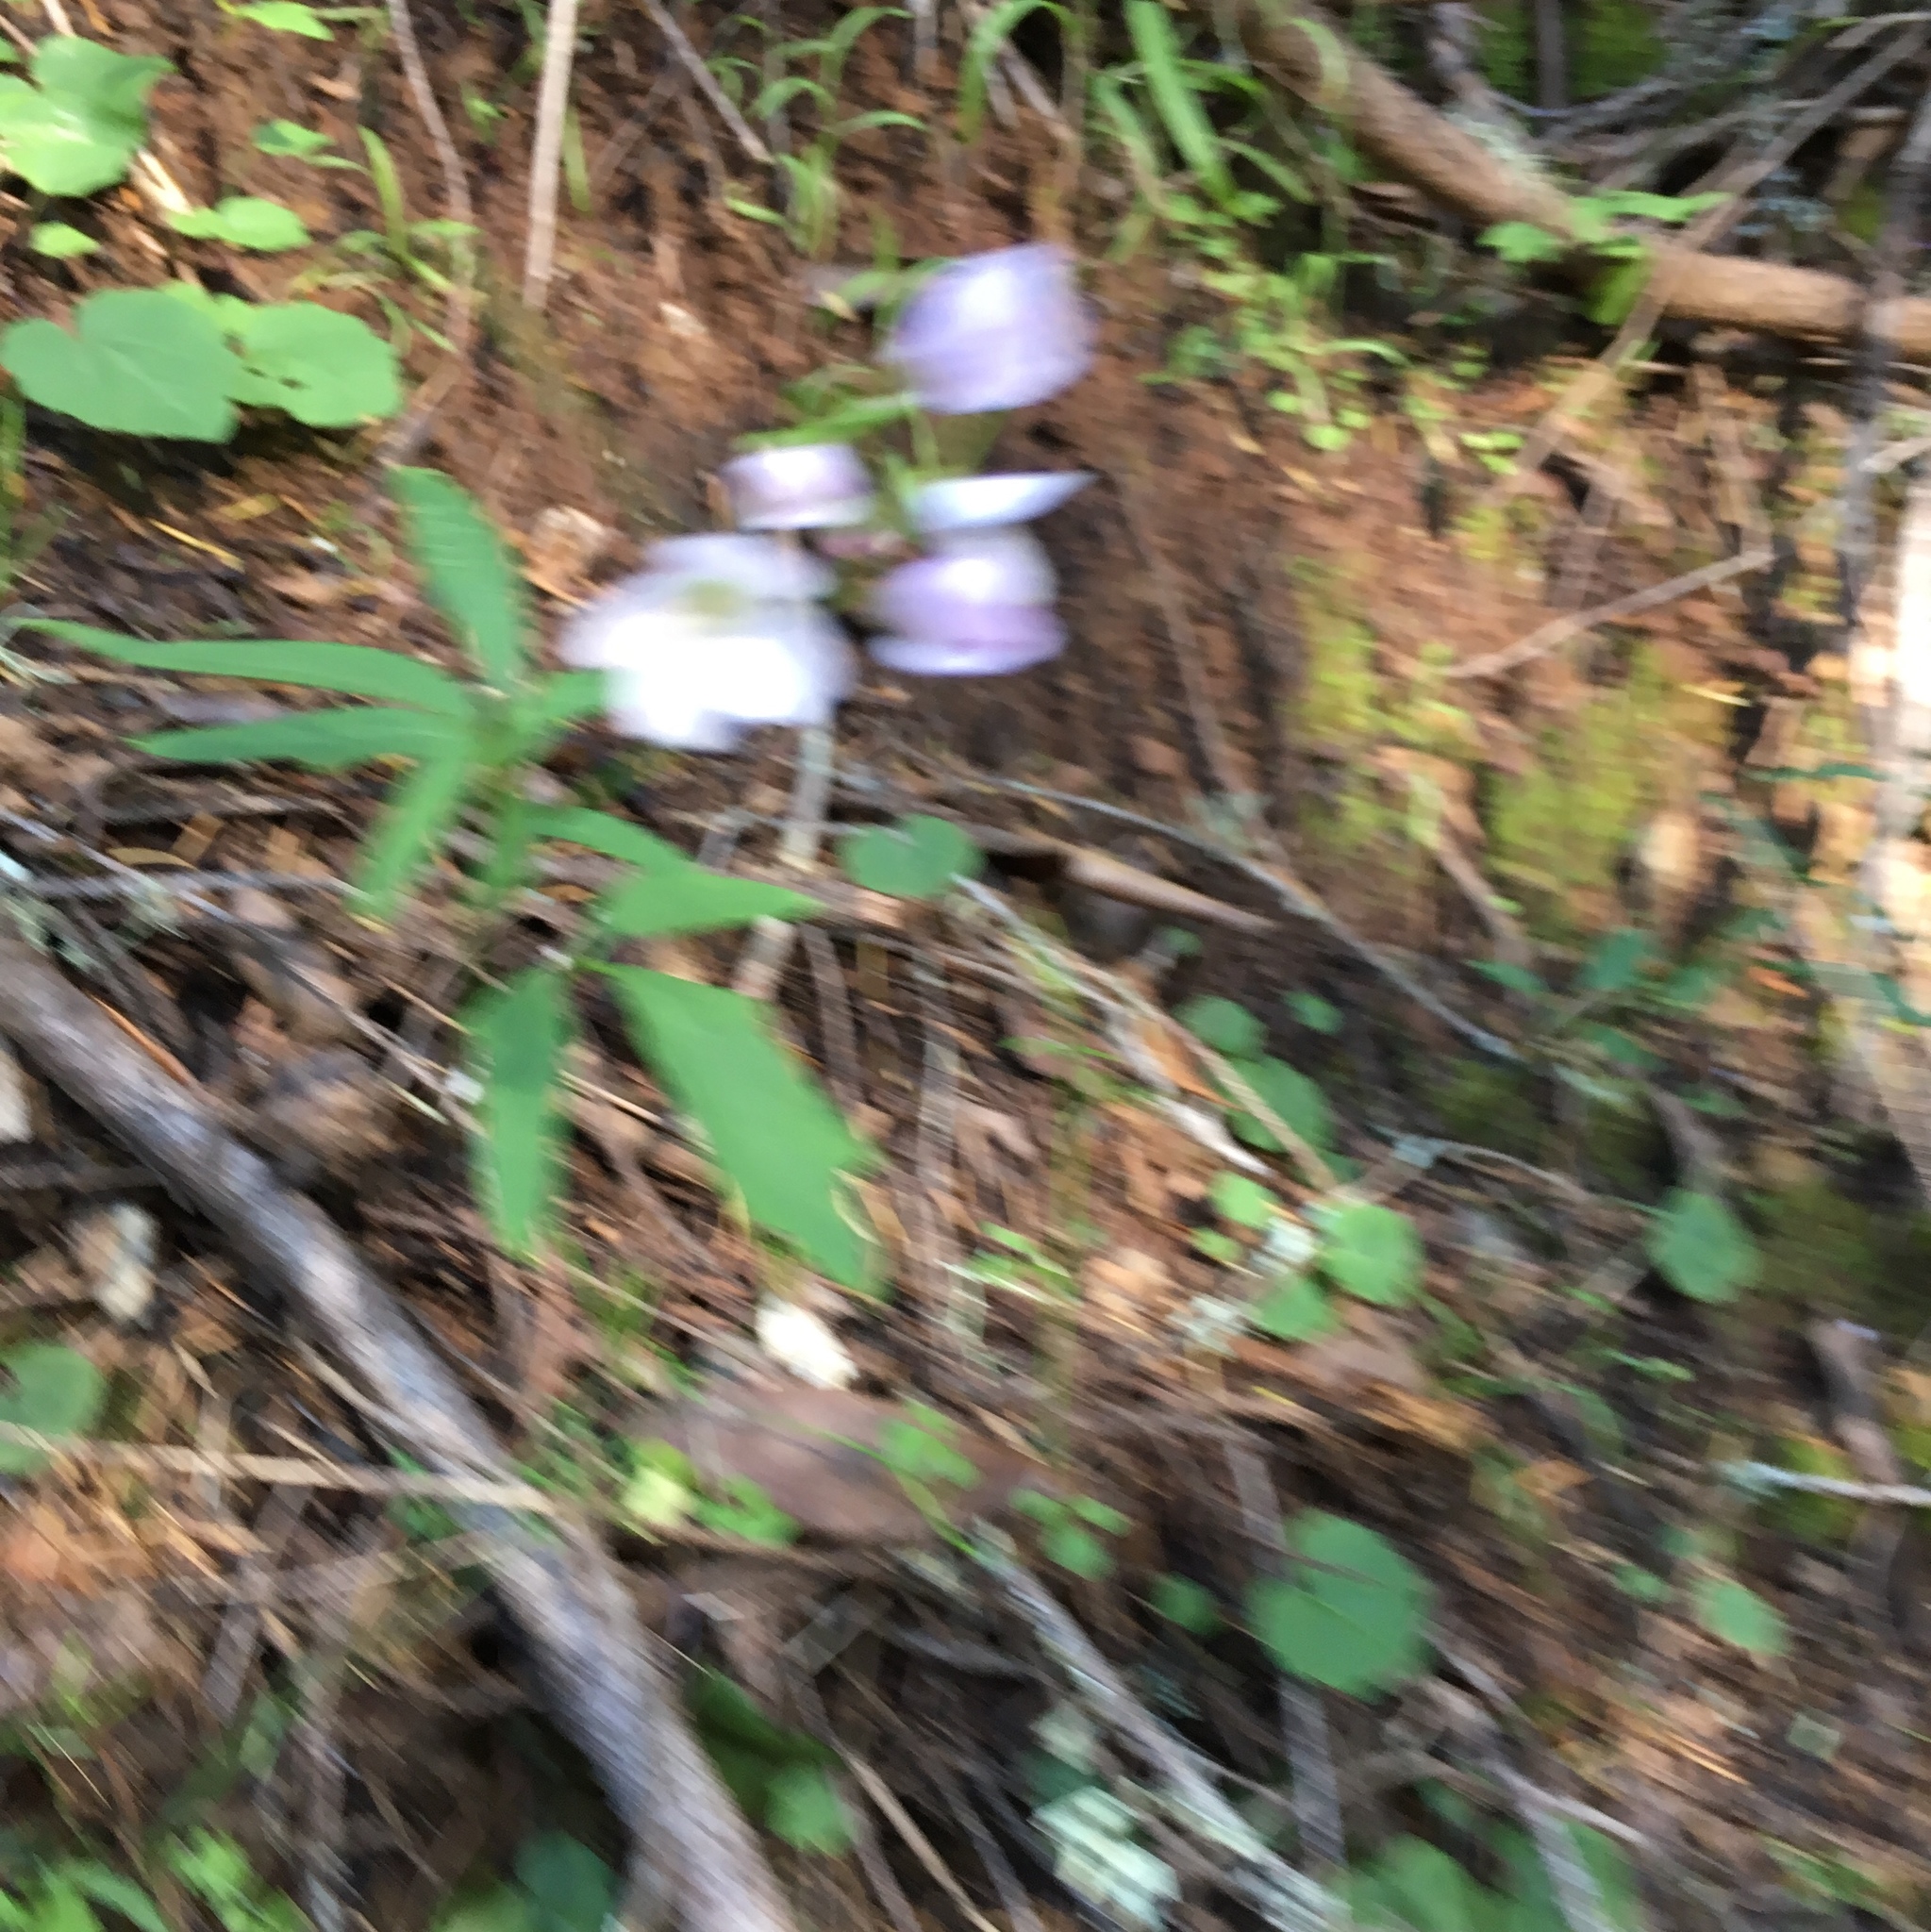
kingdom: Plantae
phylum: Tracheophyta
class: Magnoliopsida
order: Brassicales
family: Brassicaceae
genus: Cardamine
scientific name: Cardamine californica
